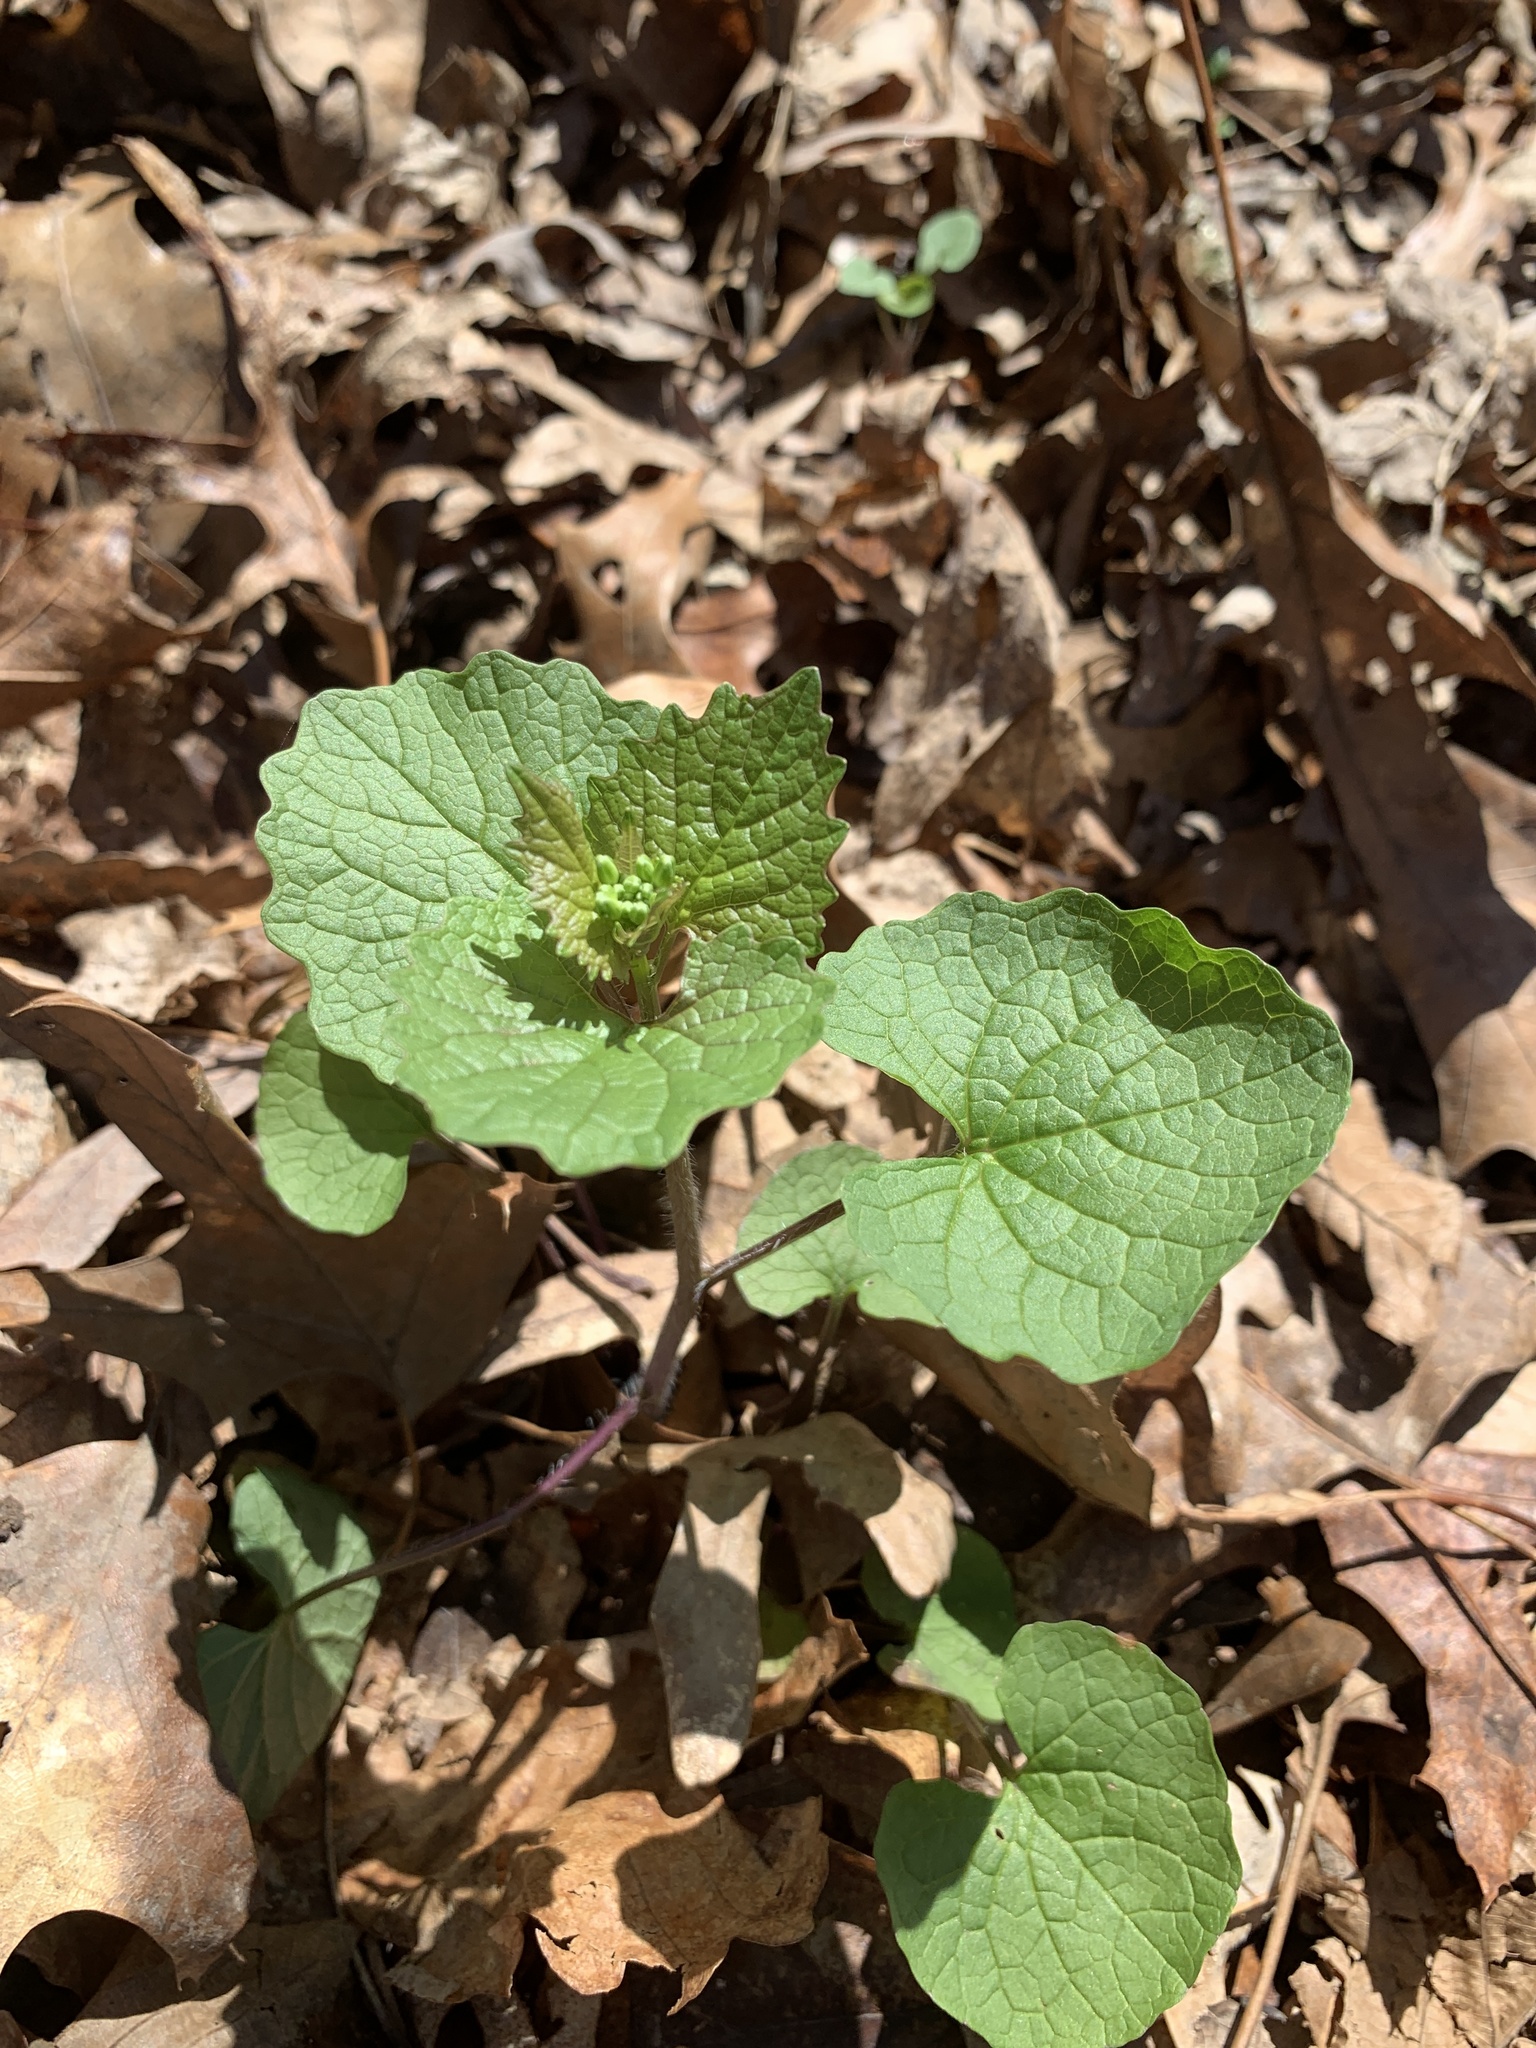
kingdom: Plantae
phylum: Tracheophyta
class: Magnoliopsida
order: Brassicales
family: Brassicaceae
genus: Alliaria
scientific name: Alliaria petiolata
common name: Garlic mustard
